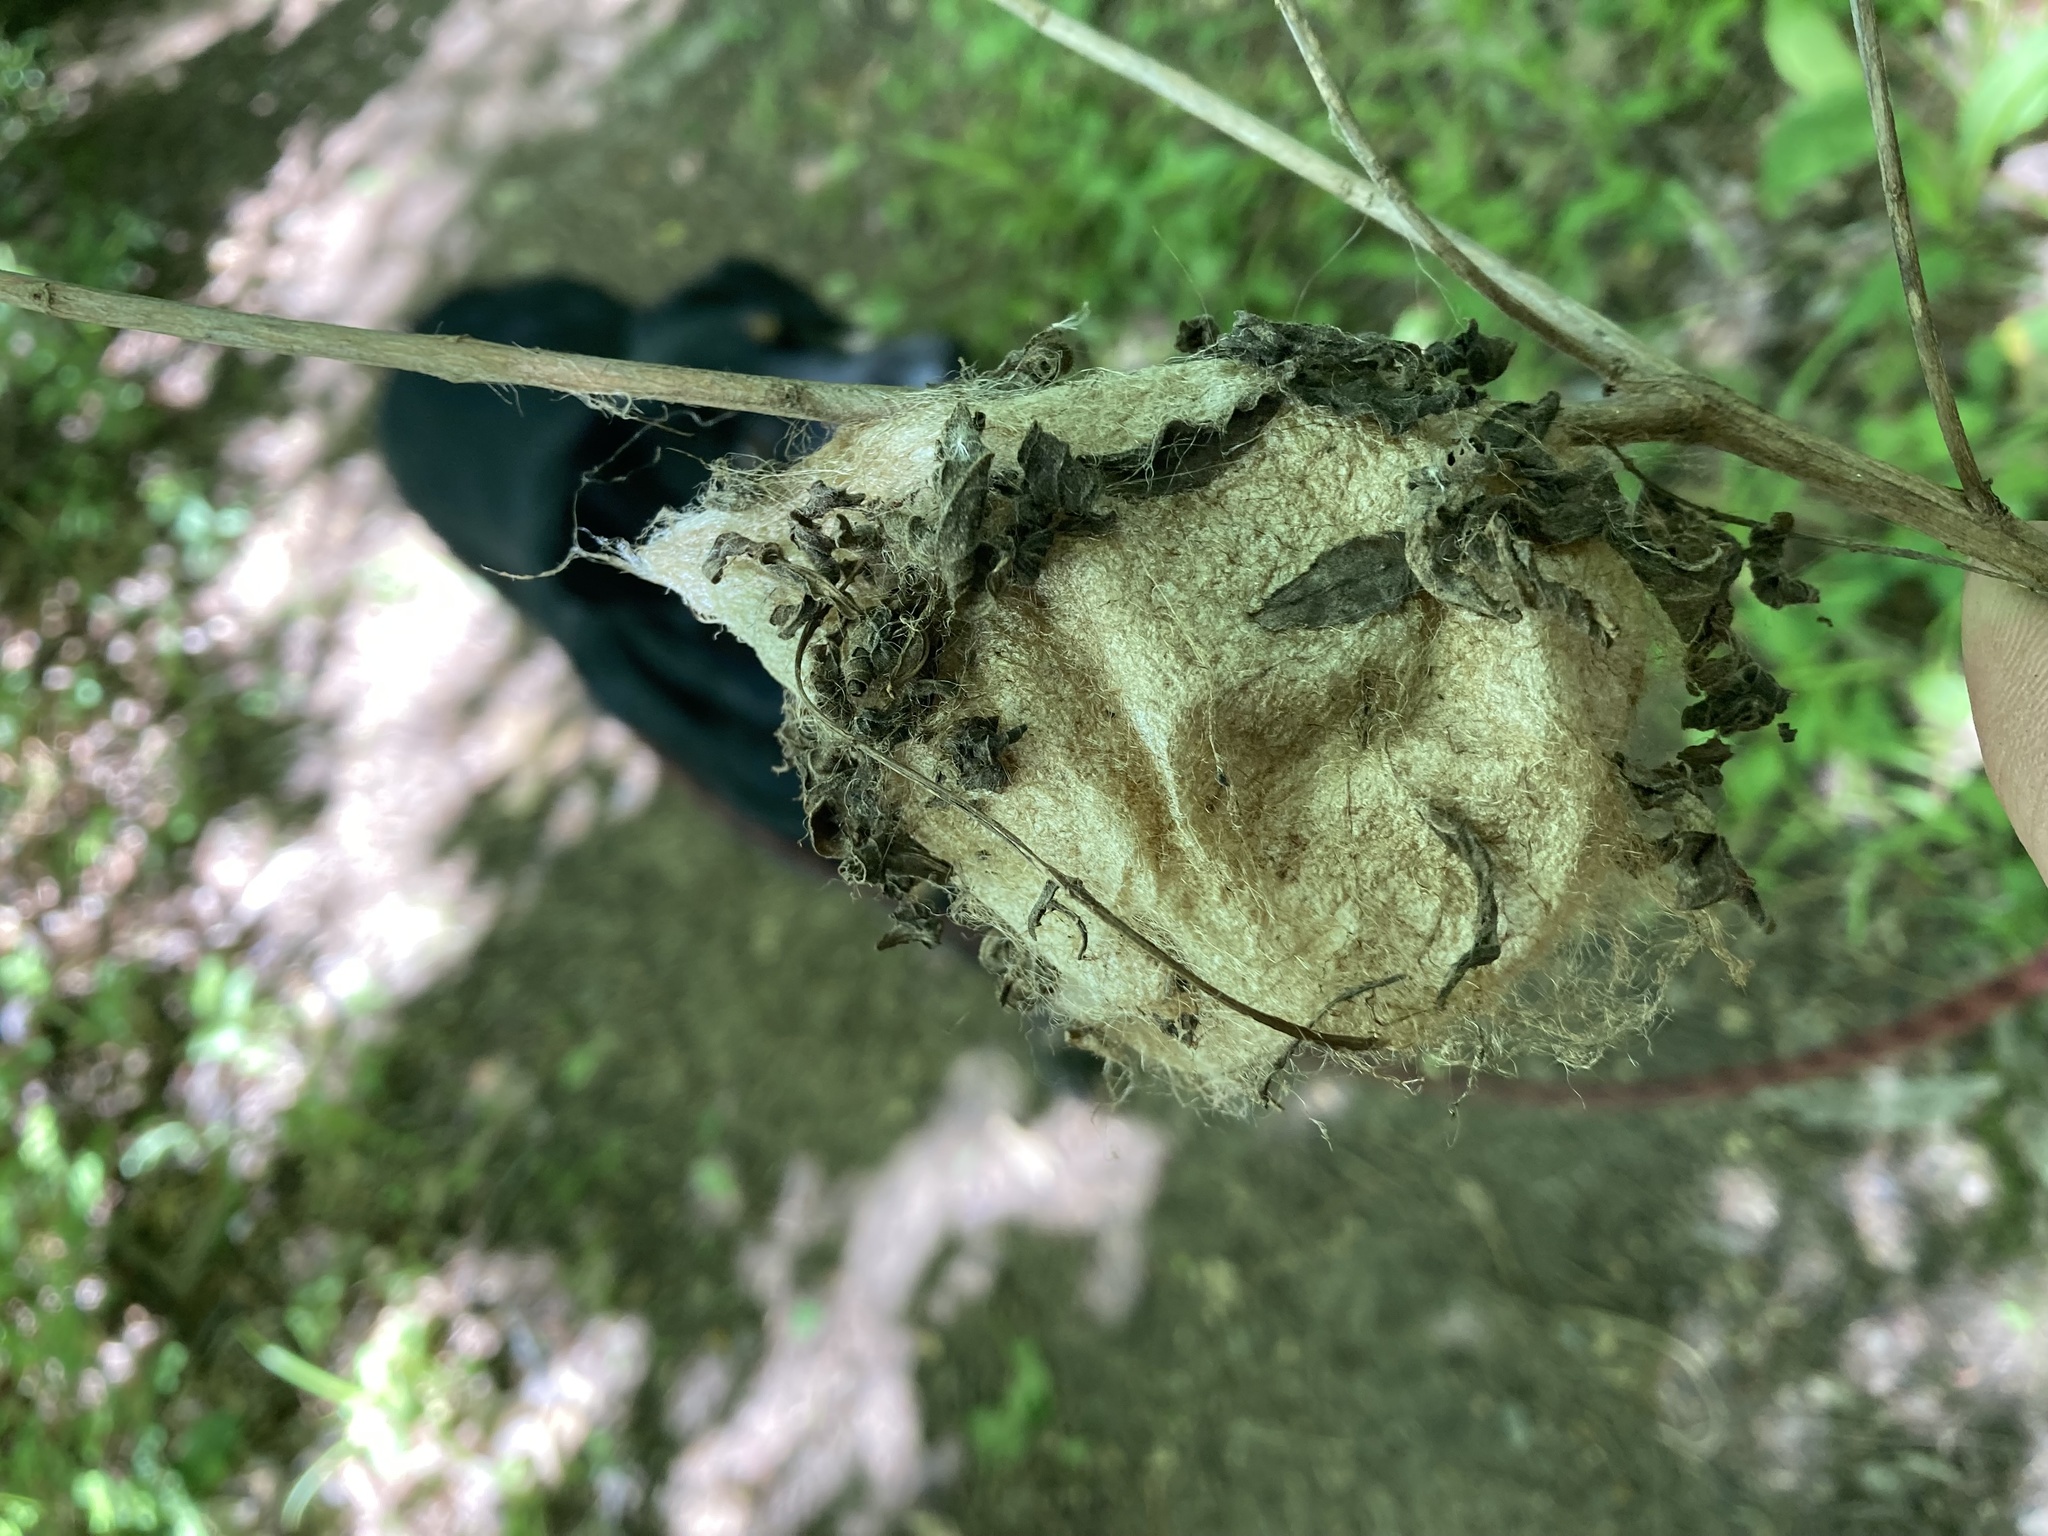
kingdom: Animalia
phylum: Arthropoda
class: Insecta
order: Lepidoptera
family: Saturniidae
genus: Hyalophora
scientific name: Hyalophora cecropia
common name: Cecropia silkmoth
